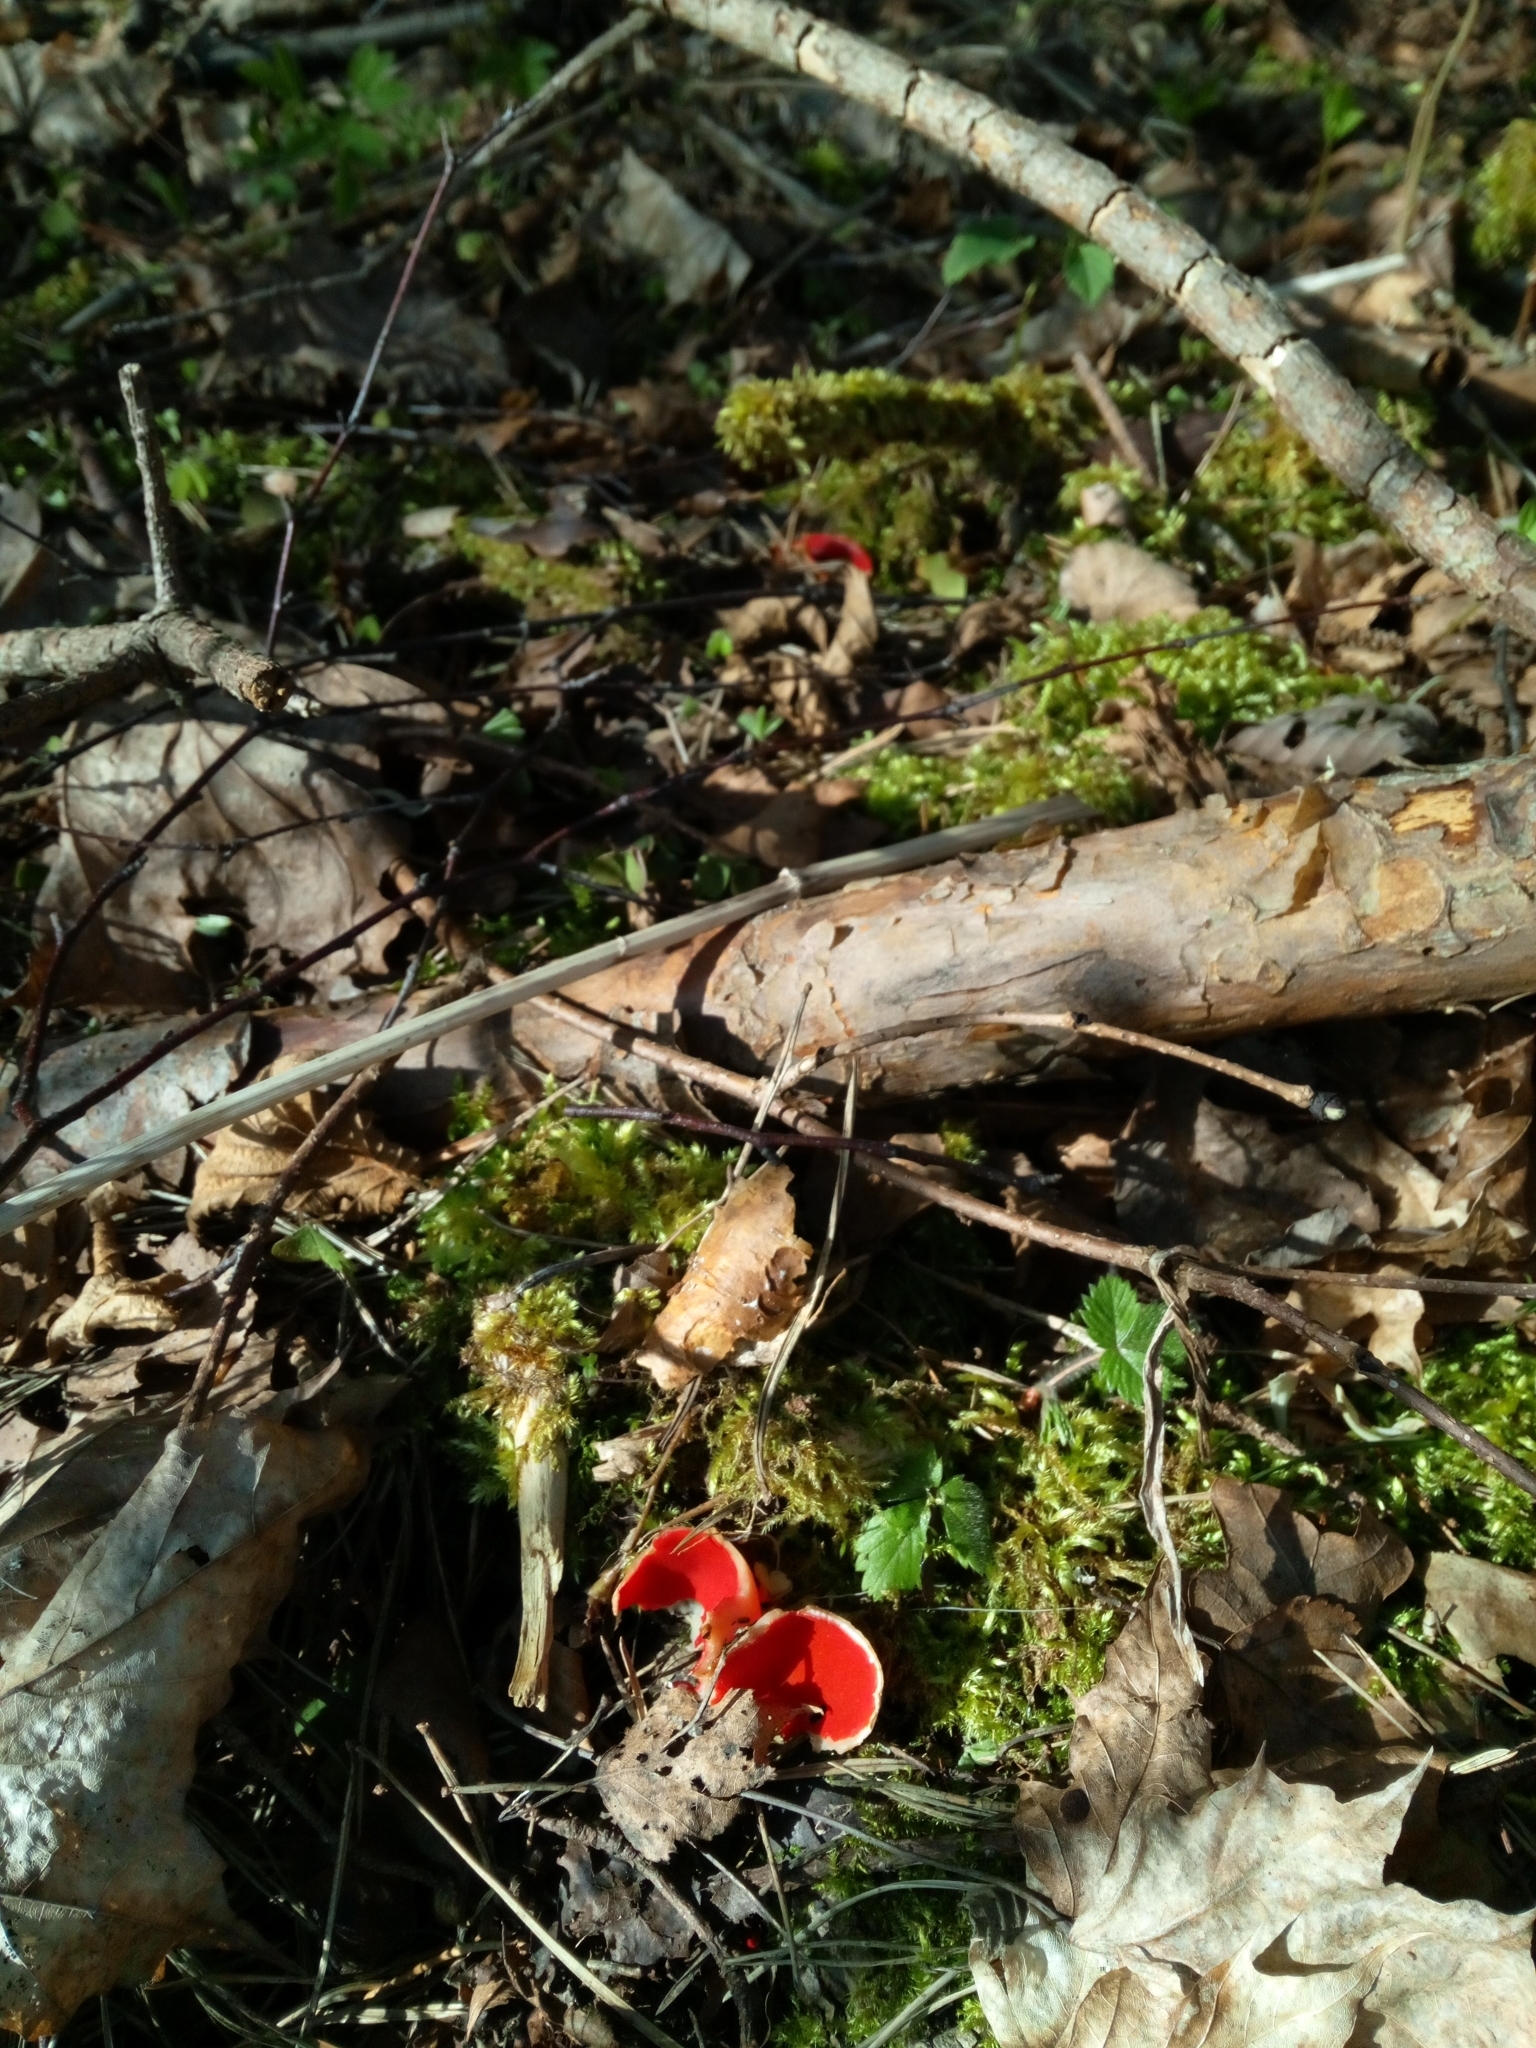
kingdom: Fungi
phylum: Ascomycota
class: Pezizomycetes
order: Pezizales
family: Sarcoscyphaceae
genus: Sarcoscypha
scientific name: Sarcoscypha
